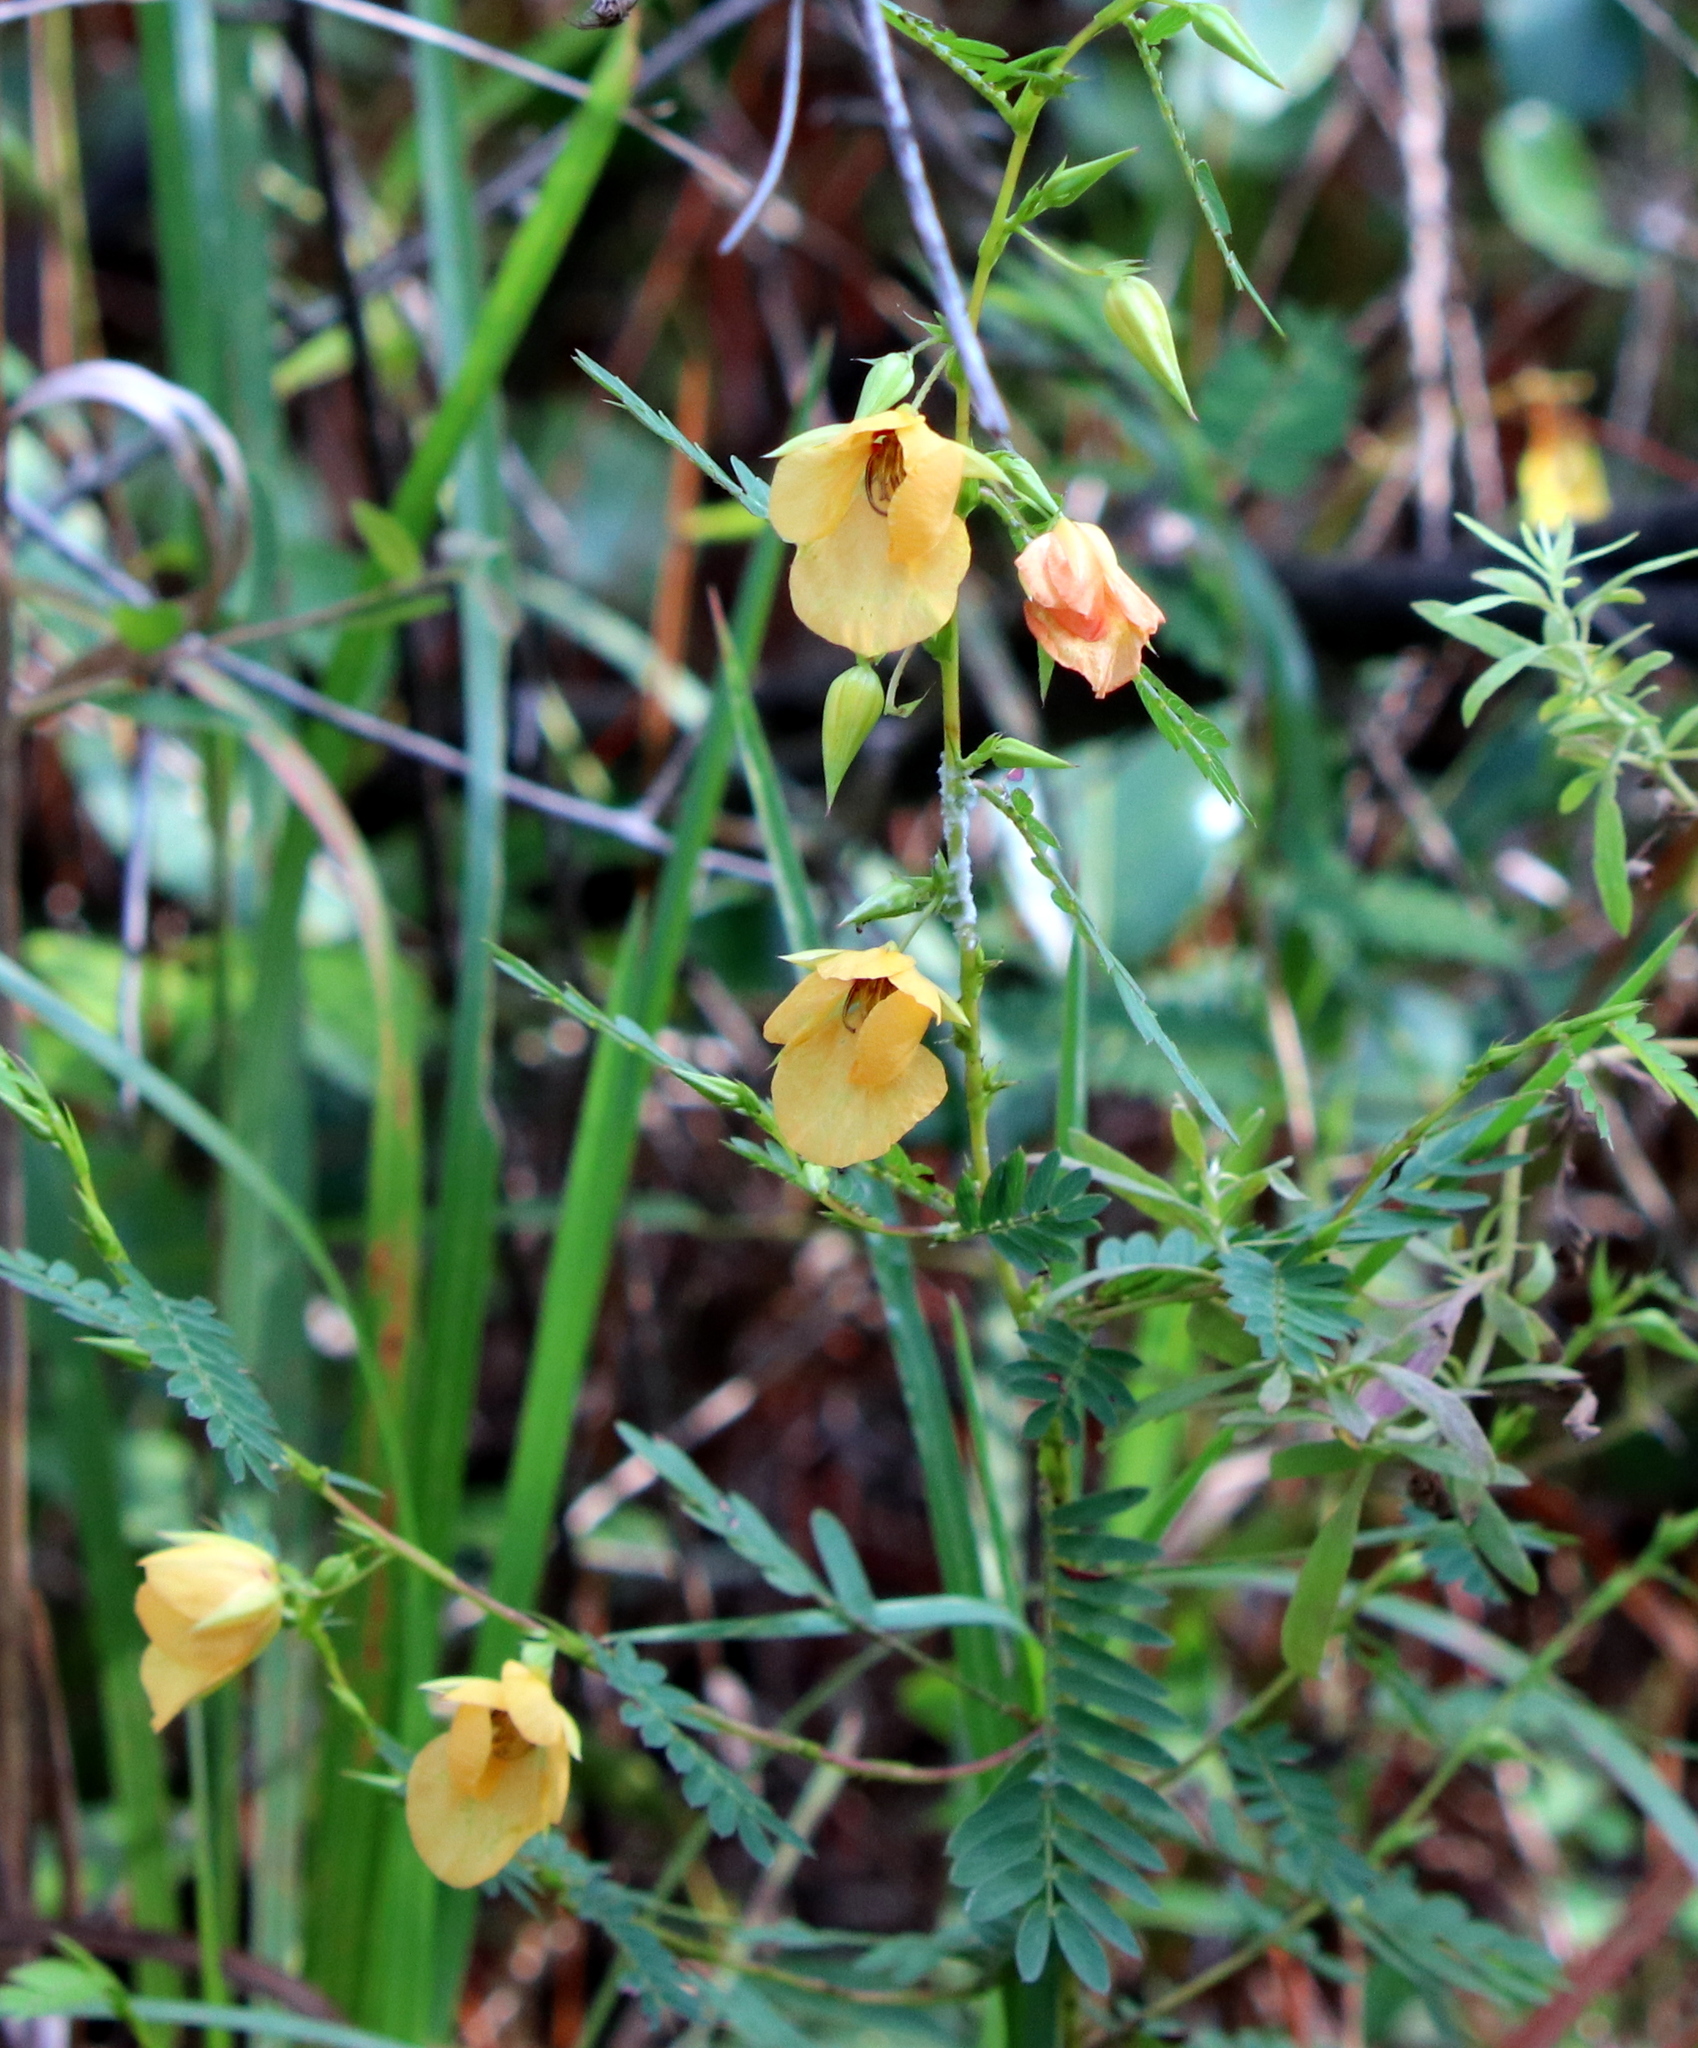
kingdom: Plantae
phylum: Tracheophyta
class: Magnoliopsida
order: Fabales
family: Fabaceae
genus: Chamaecrista
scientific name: Chamaecrista fasciculata
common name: Golden cassia
